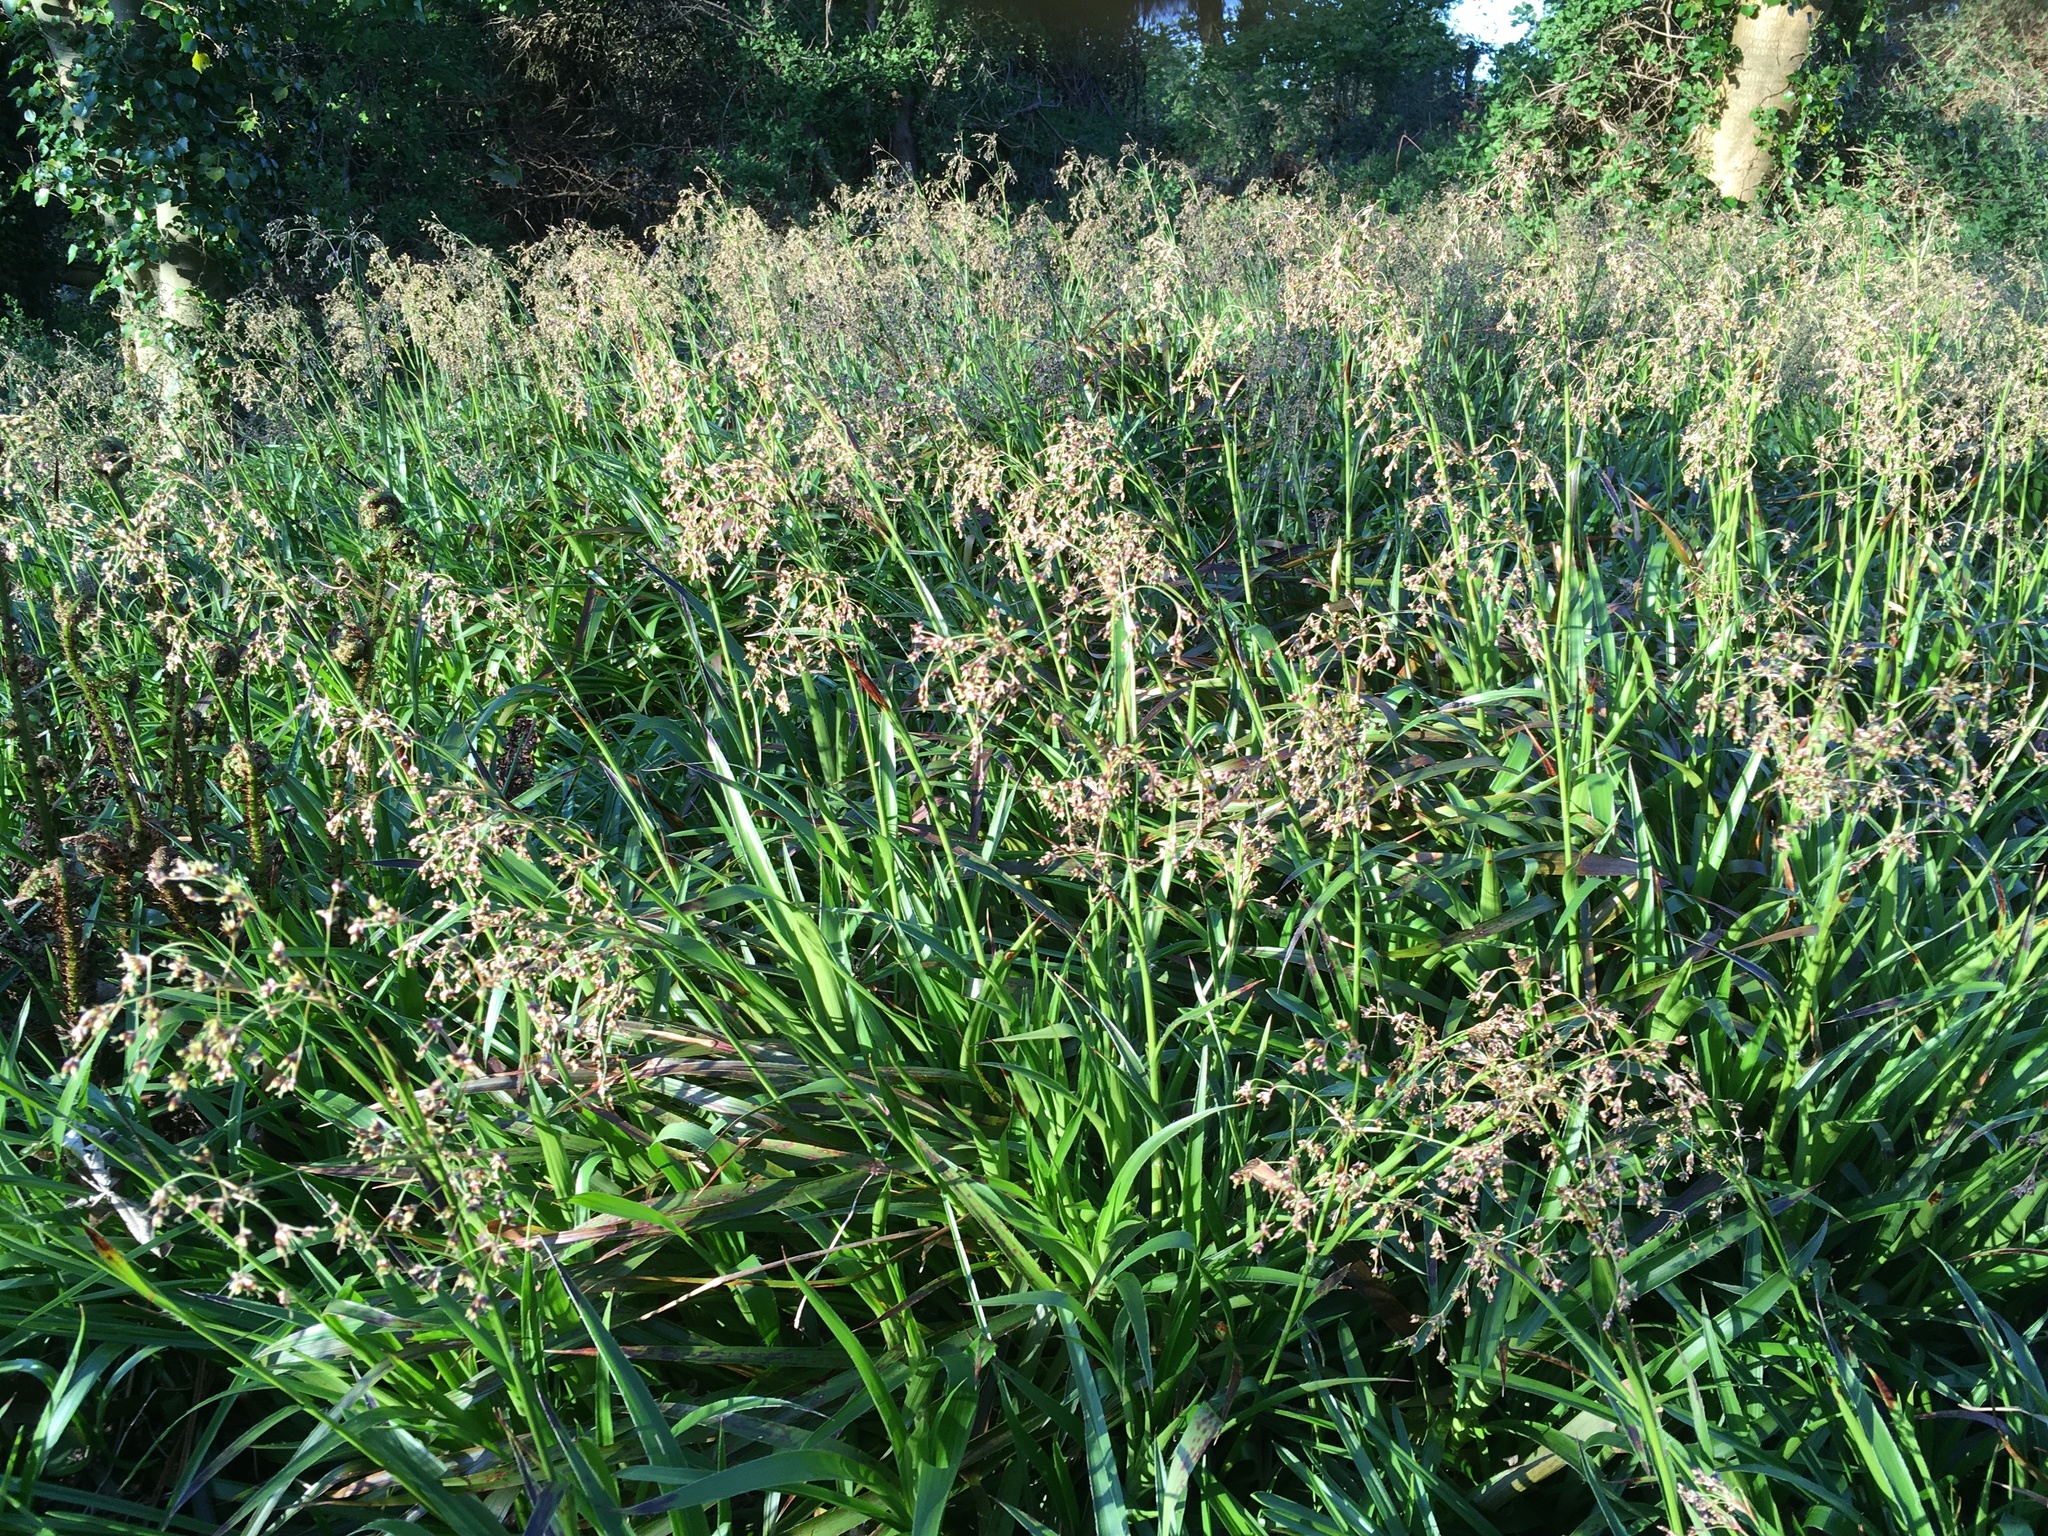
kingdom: Plantae
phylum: Tracheophyta
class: Liliopsida
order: Poales
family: Juncaceae
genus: Luzula
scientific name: Luzula sylvatica
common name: Great wood-rush
